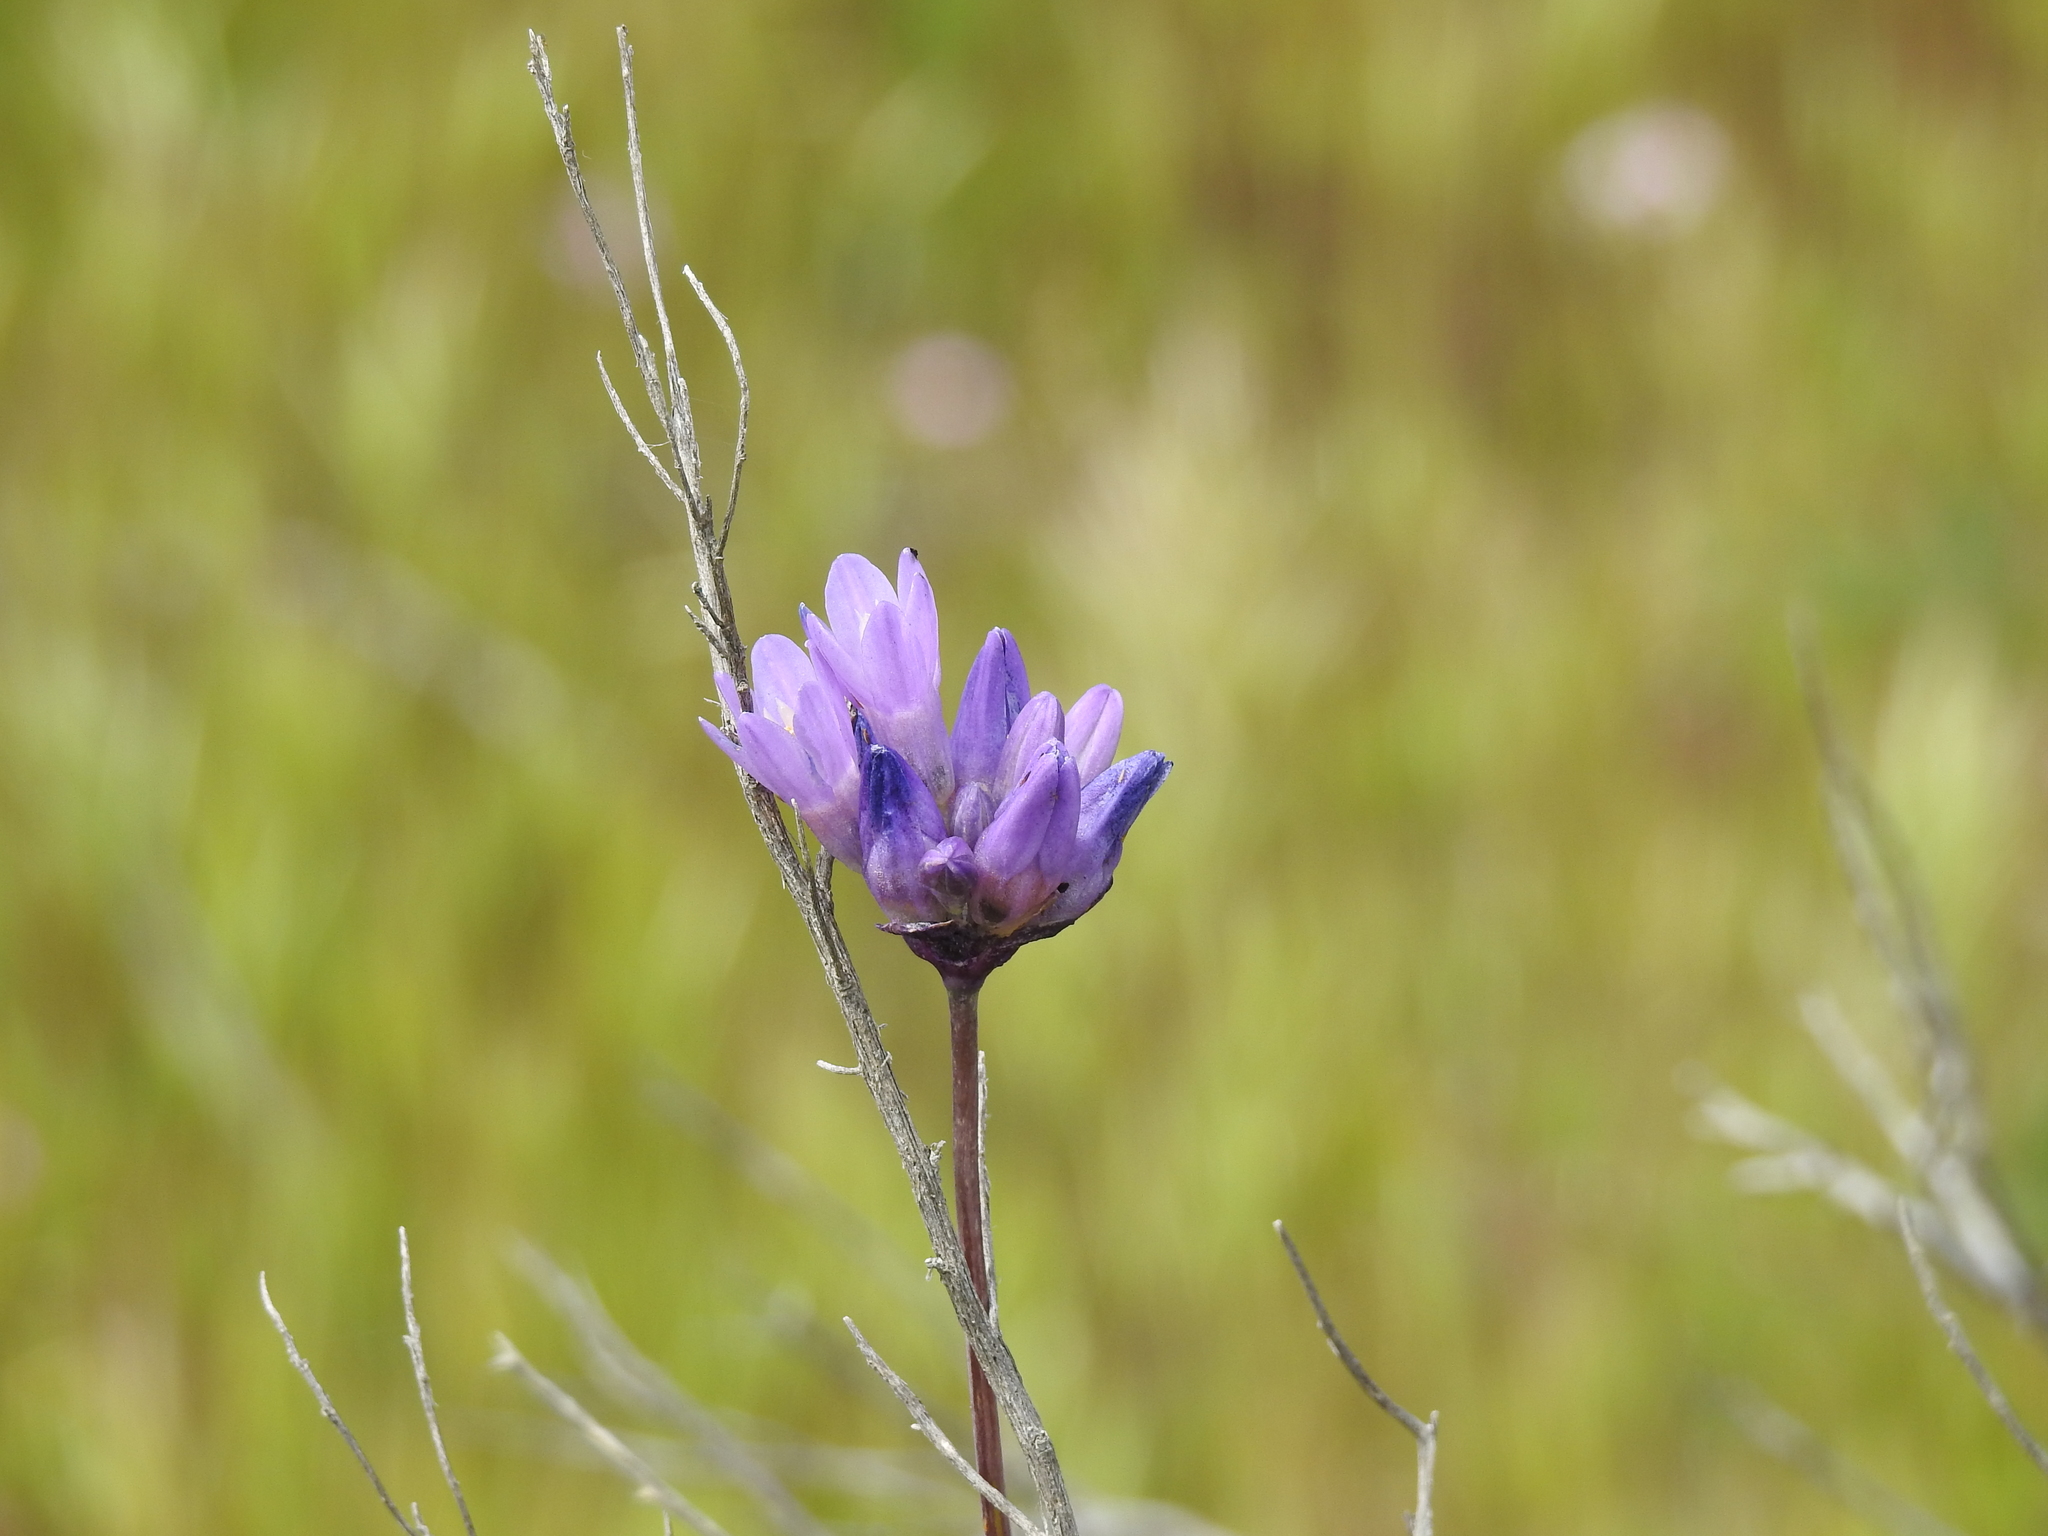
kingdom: Plantae
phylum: Tracheophyta
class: Liliopsida
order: Asparagales
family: Asparagaceae
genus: Dipterostemon
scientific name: Dipterostemon capitatus
